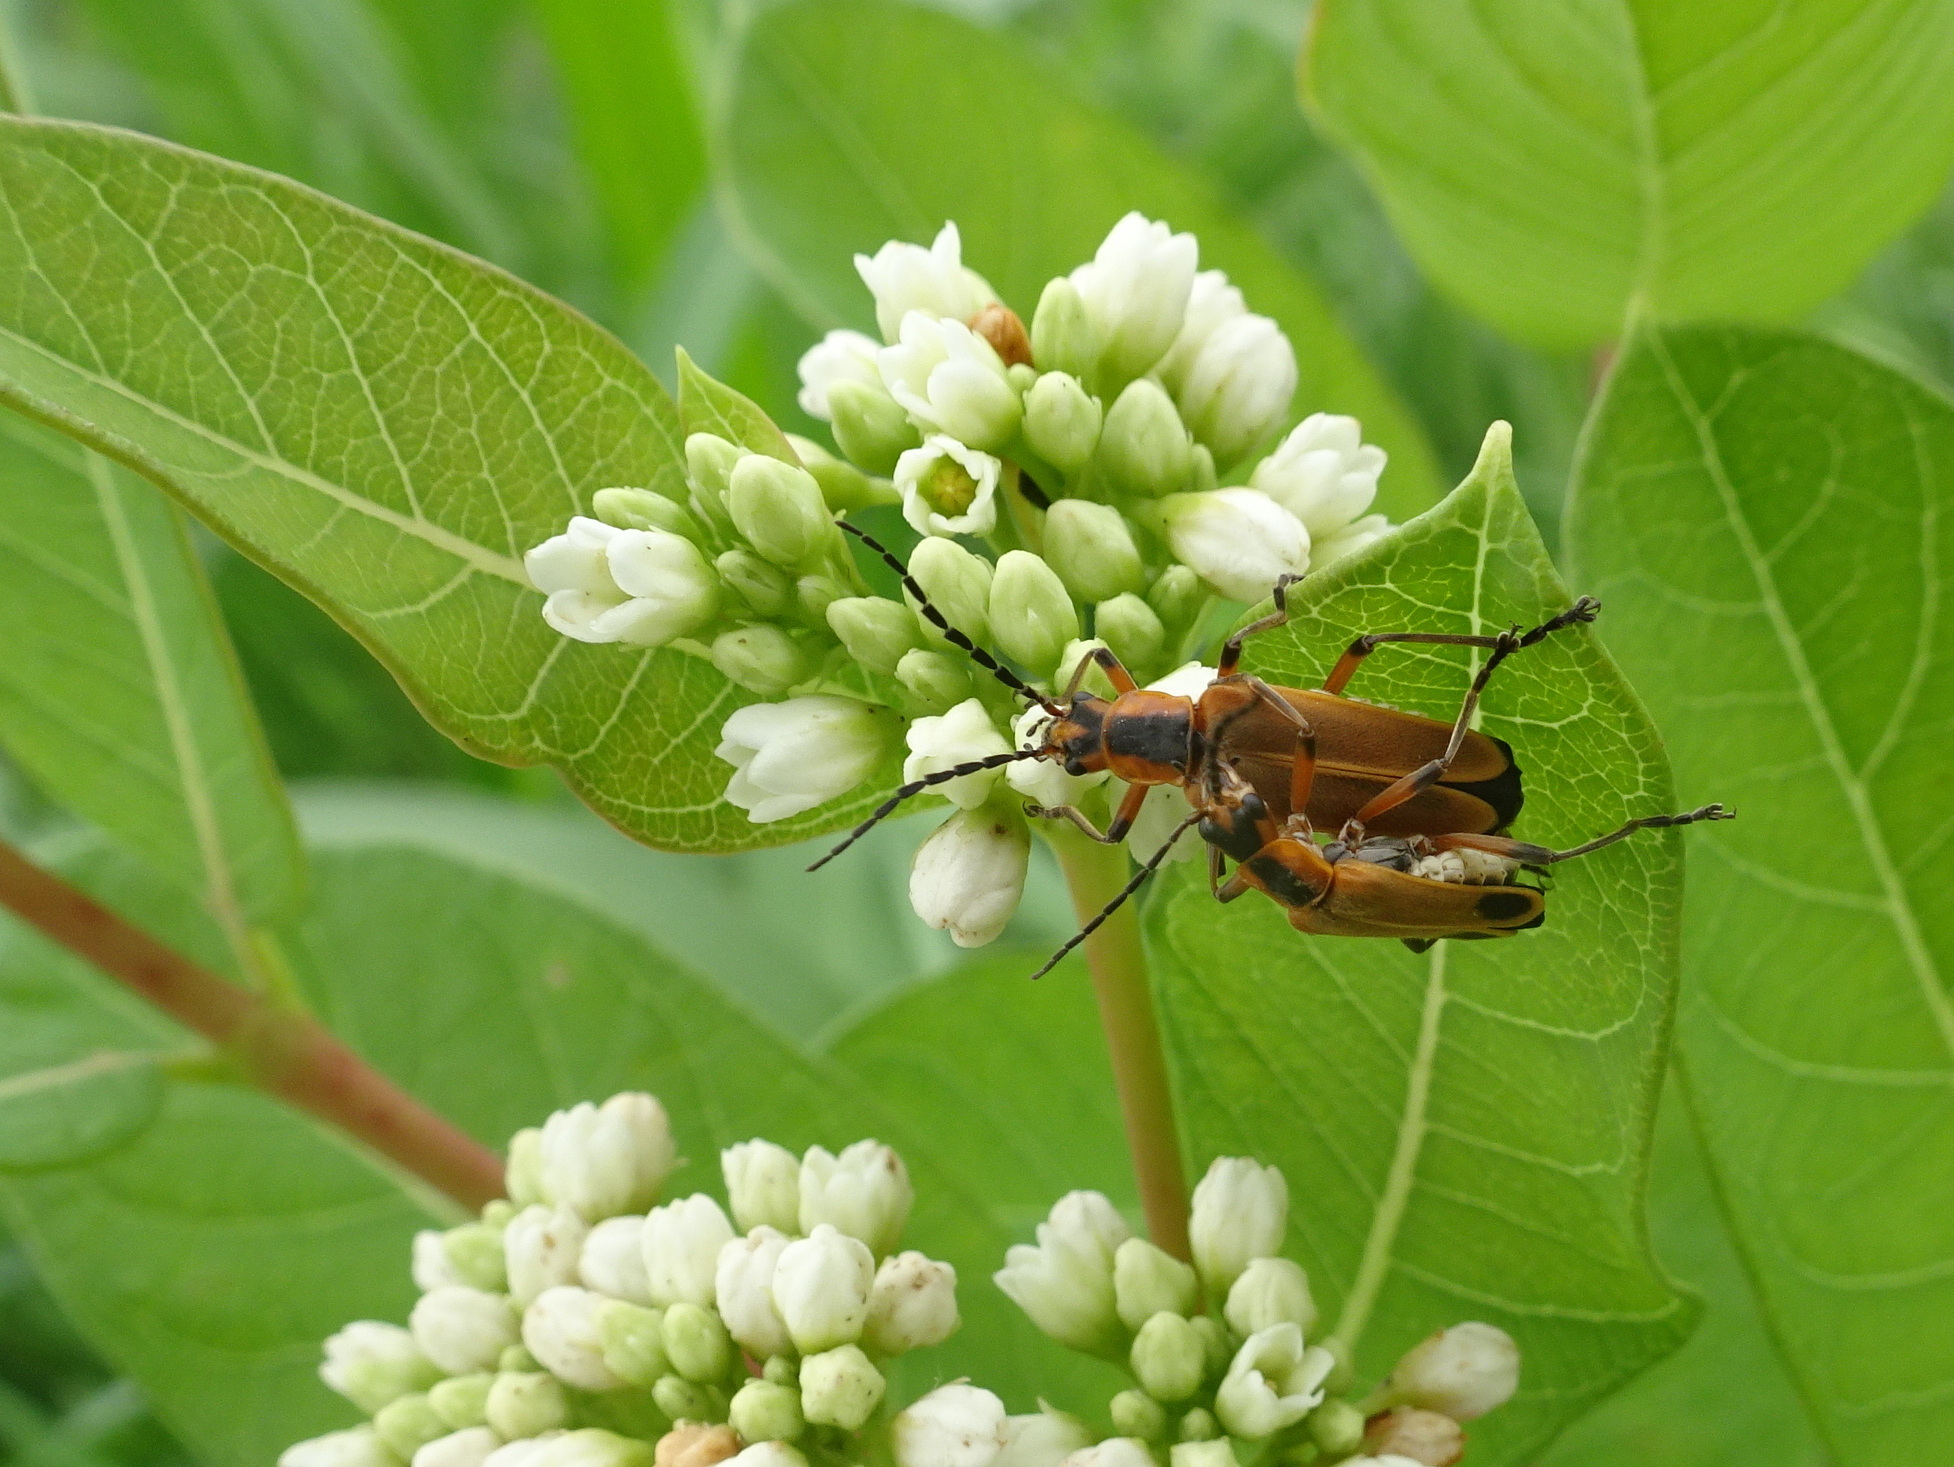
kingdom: Animalia
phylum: Arthropoda
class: Insecta
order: Coleoptera
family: Cantharidae
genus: Chauliognathus
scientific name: Chauliognathus marginatus
